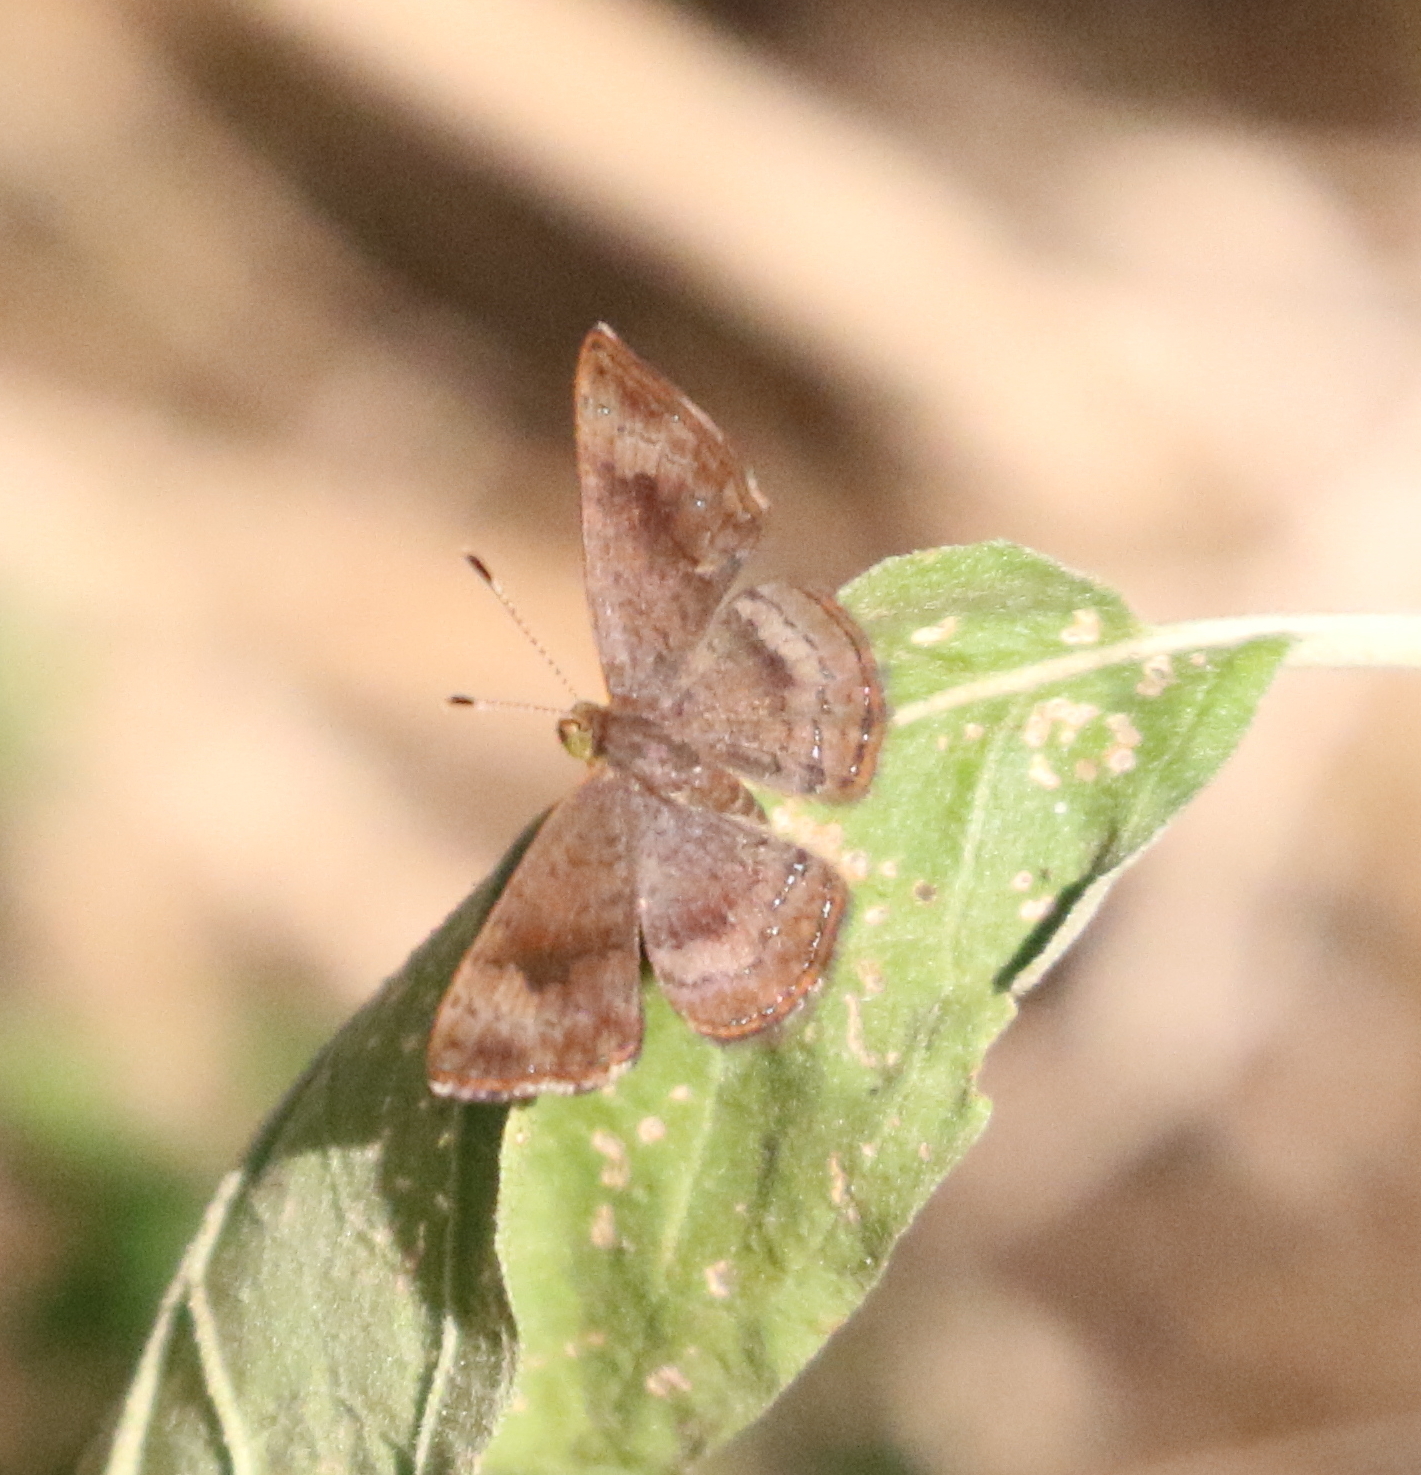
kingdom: Animalia
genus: Calephelis
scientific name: Calephelis nemesis
